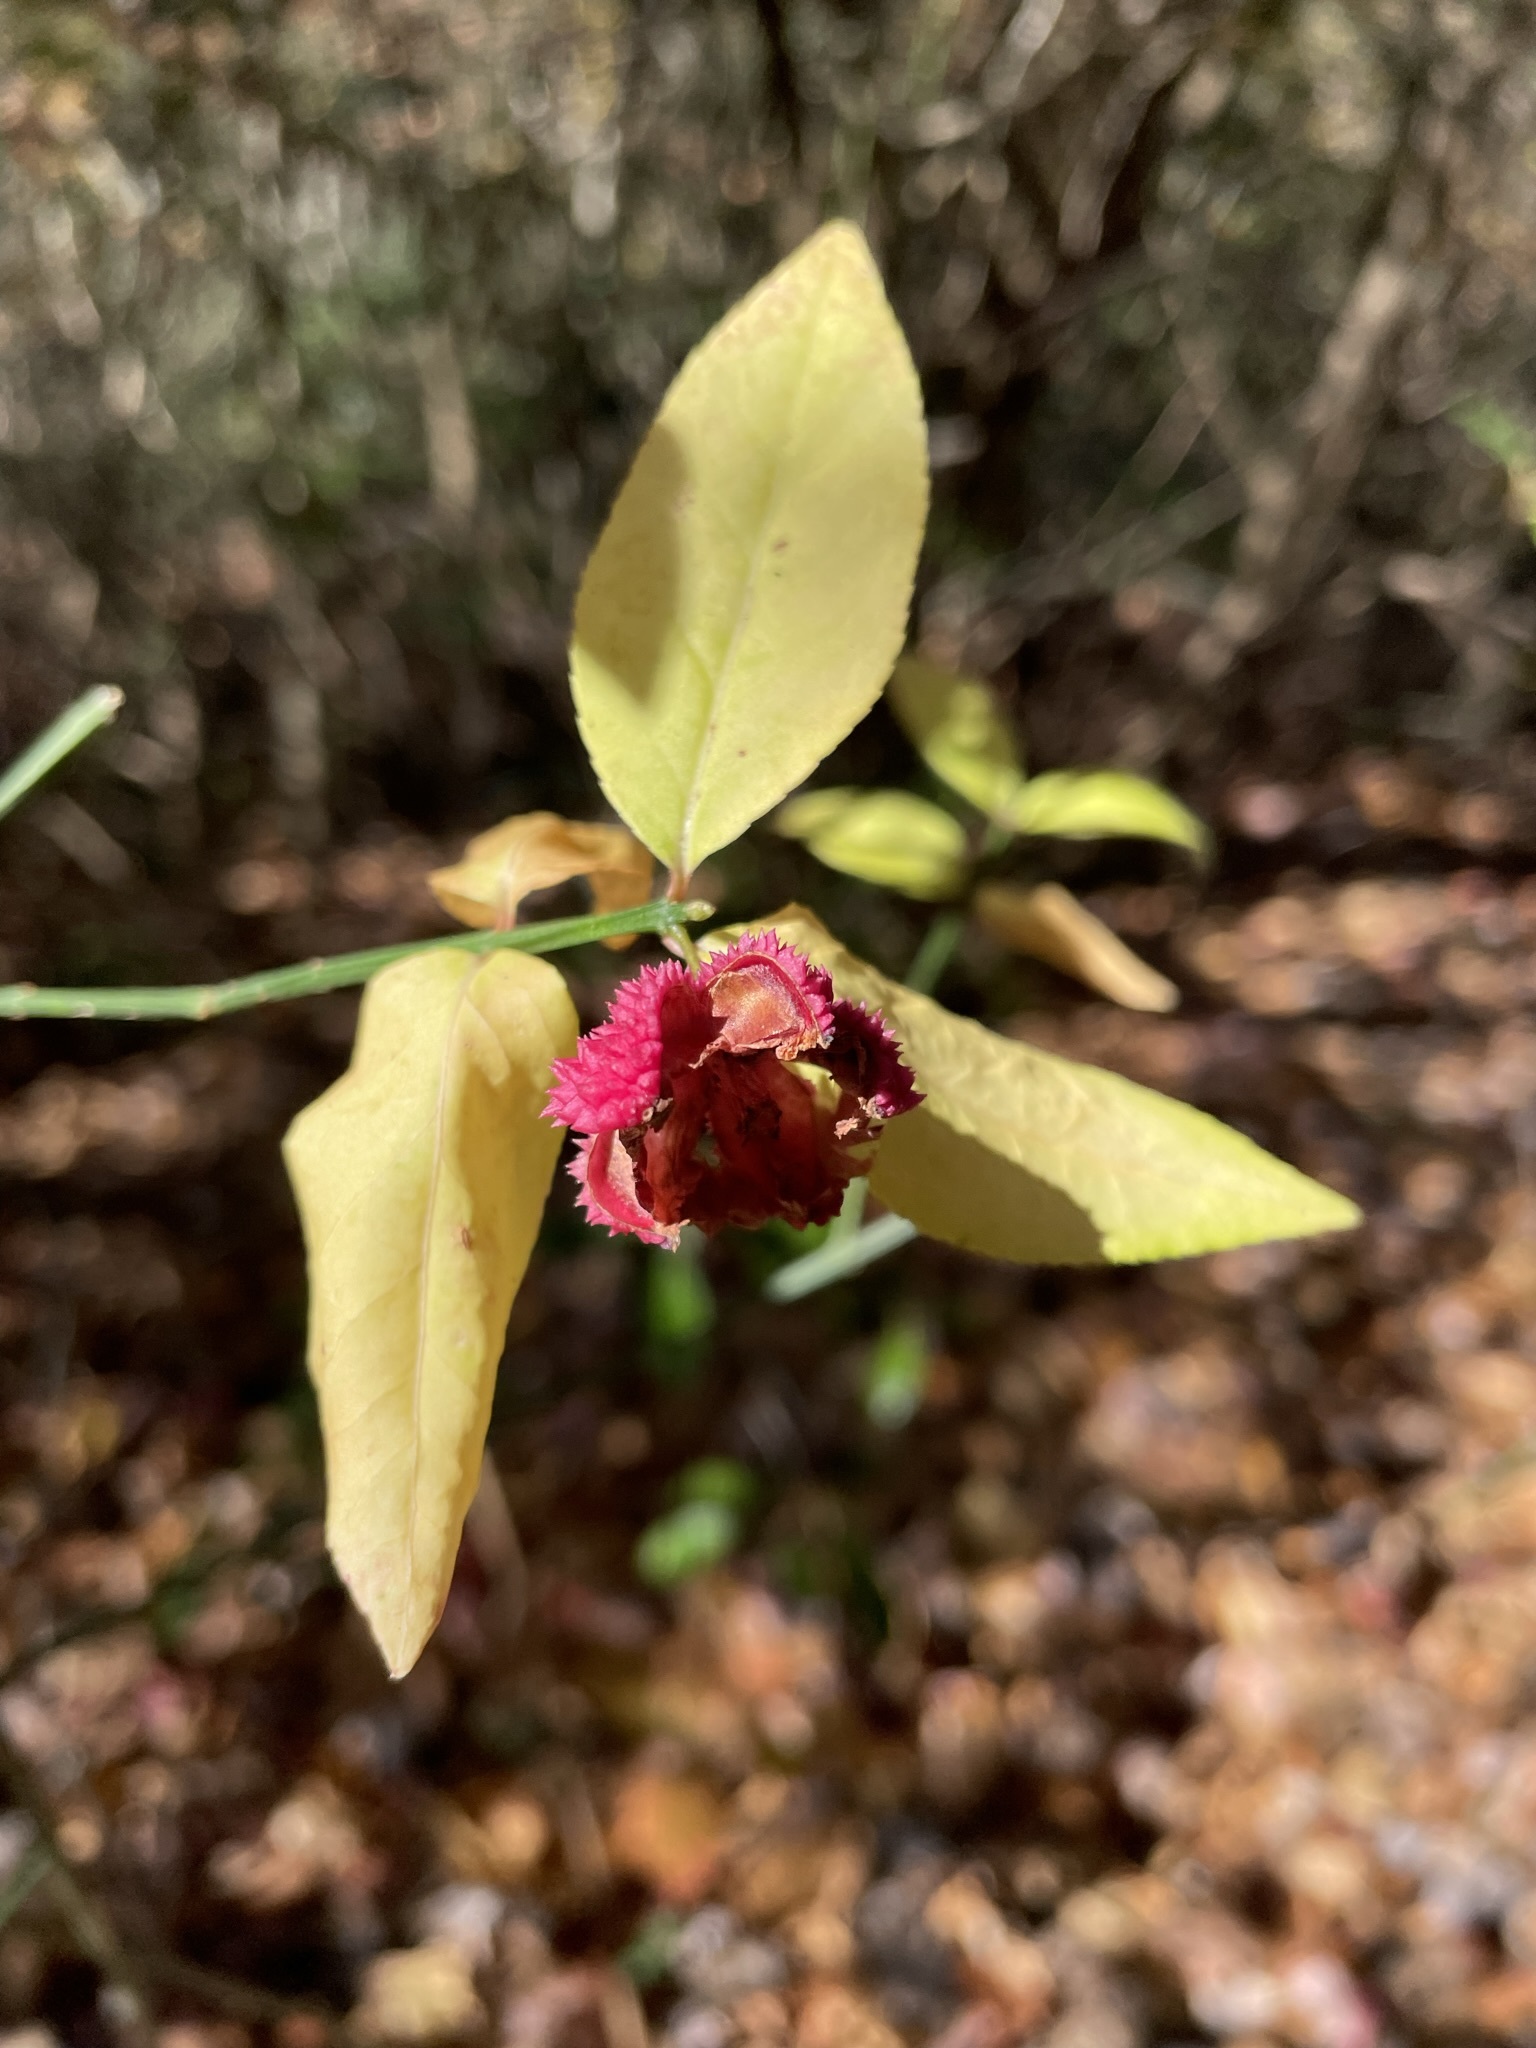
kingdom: Plantae
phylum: Tracheophyta
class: Magnoliopsida
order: Celastrales
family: Celastraceae
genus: Euonymus
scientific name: Euonymus americanus
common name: Bursting-heart
